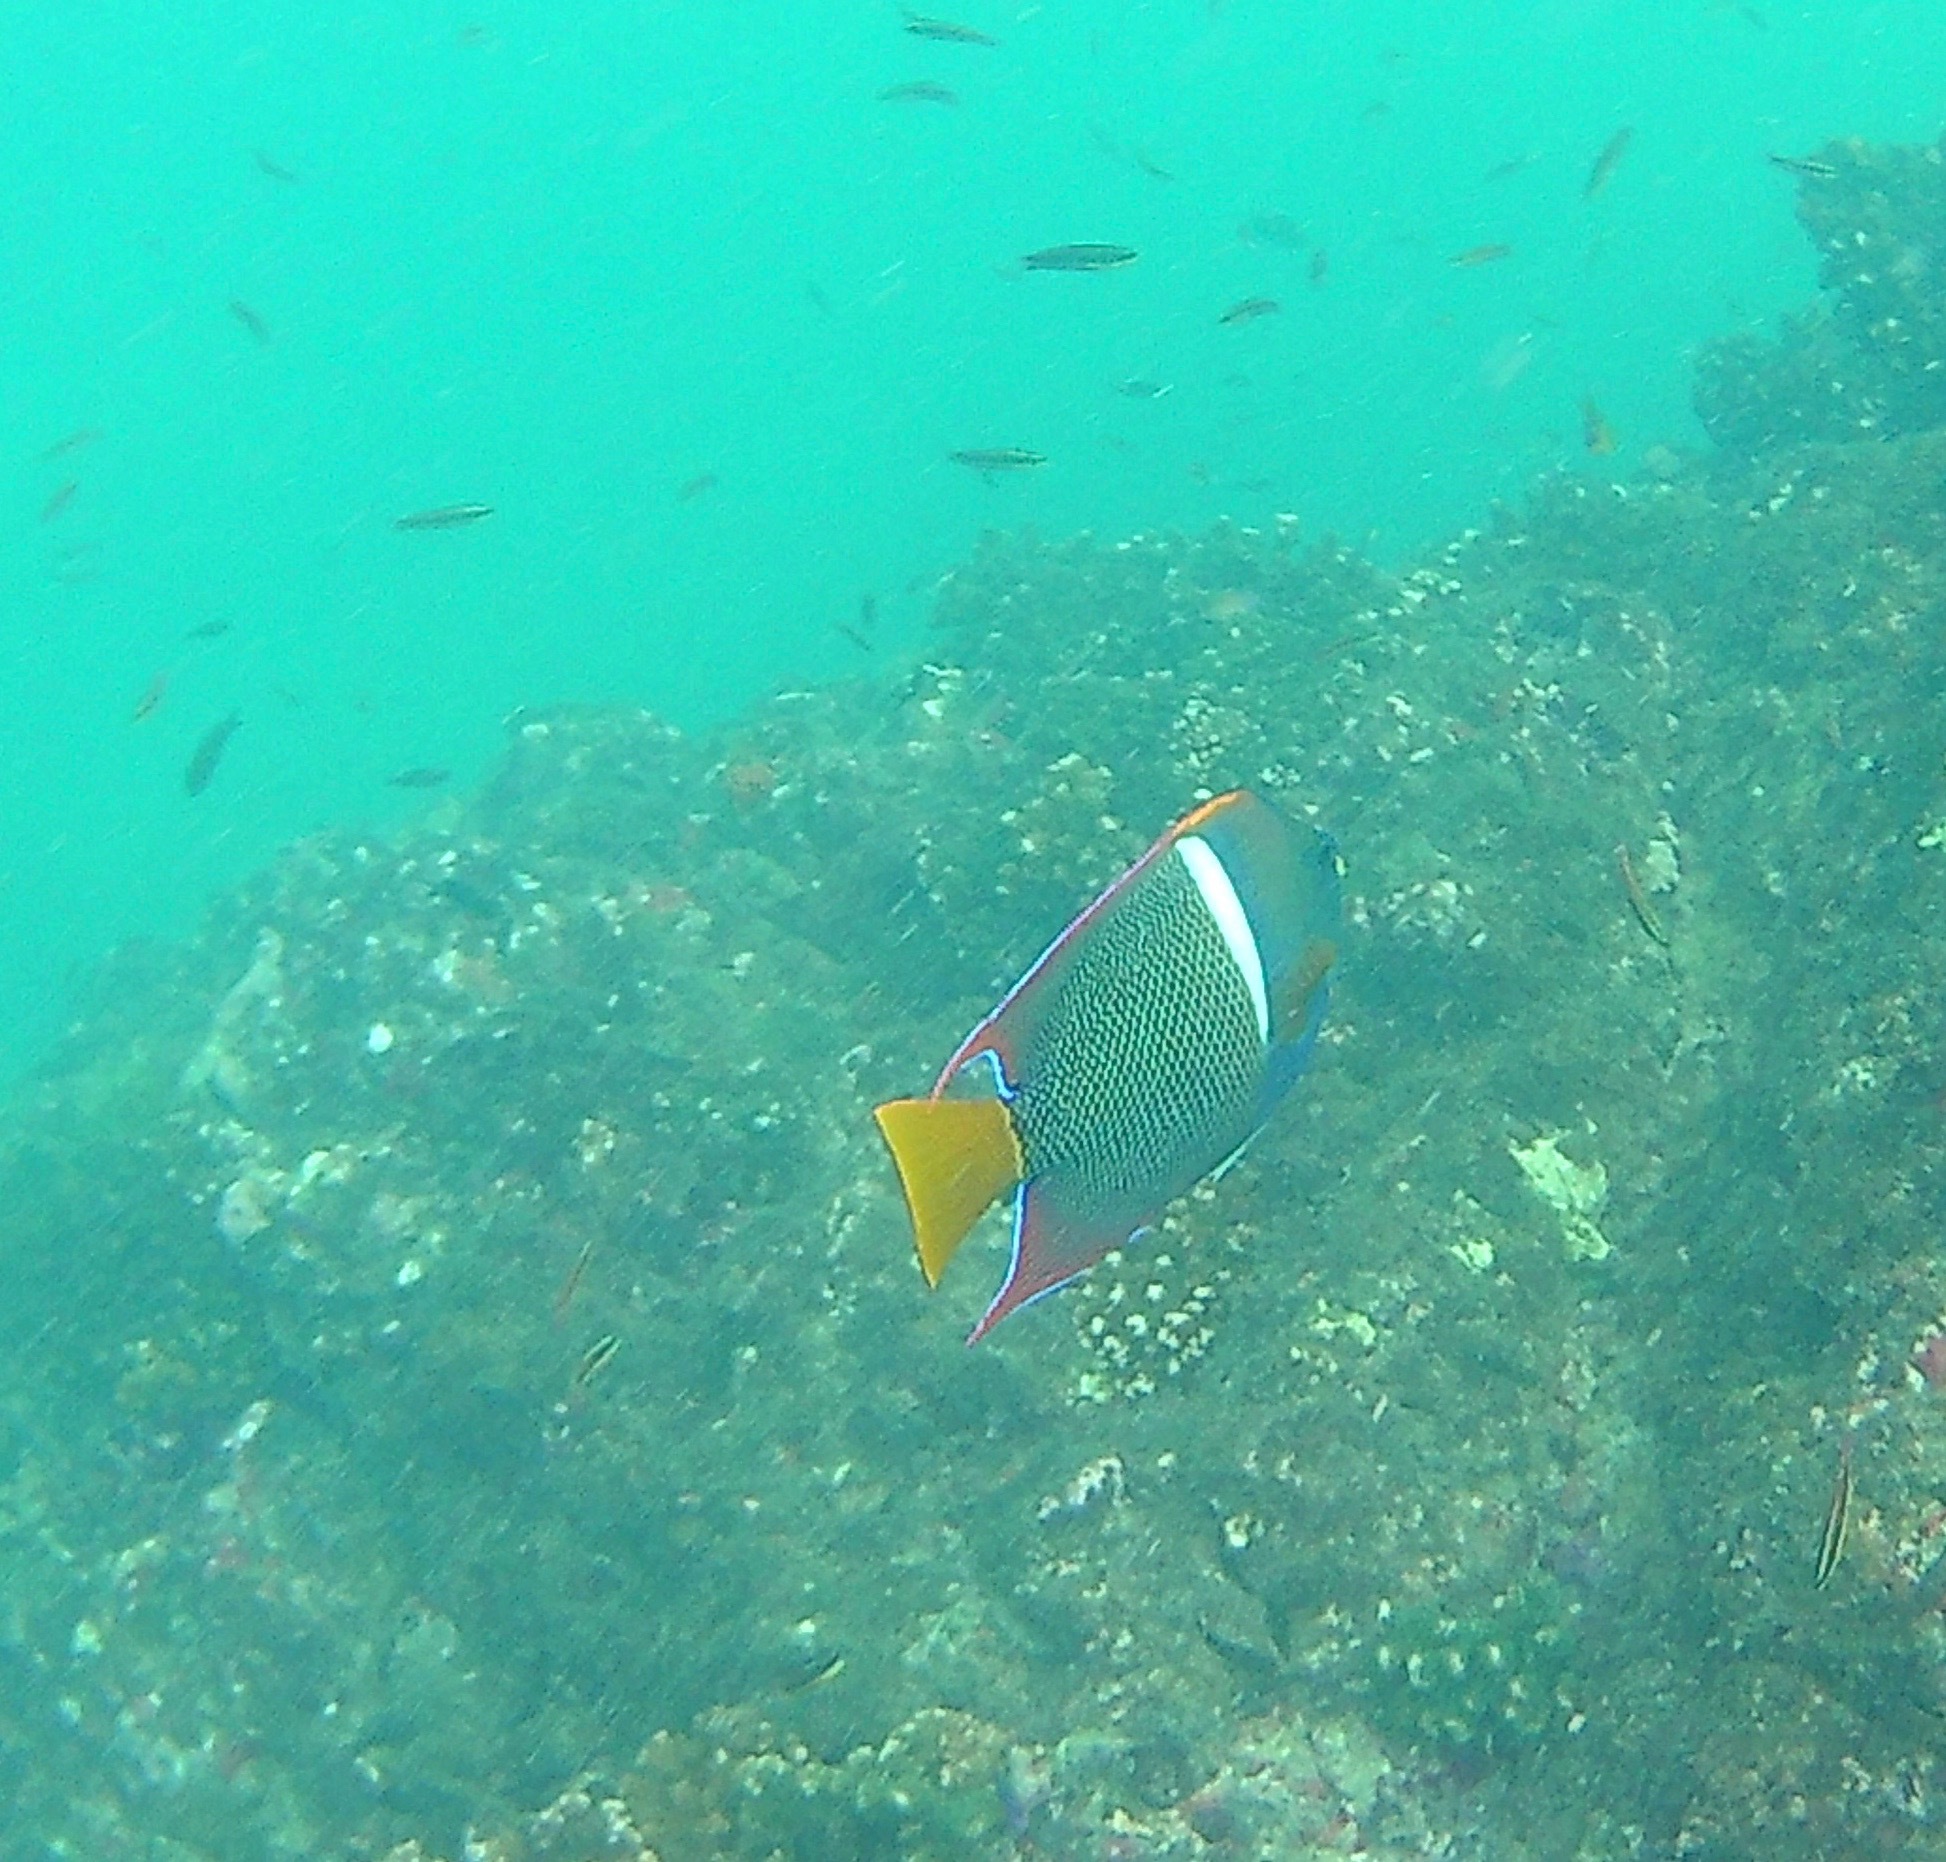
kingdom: Animalia
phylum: Chordata
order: Perciformes
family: Pomacanthidae
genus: Holacanthus
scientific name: Holacanthus passer
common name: King angelfish
